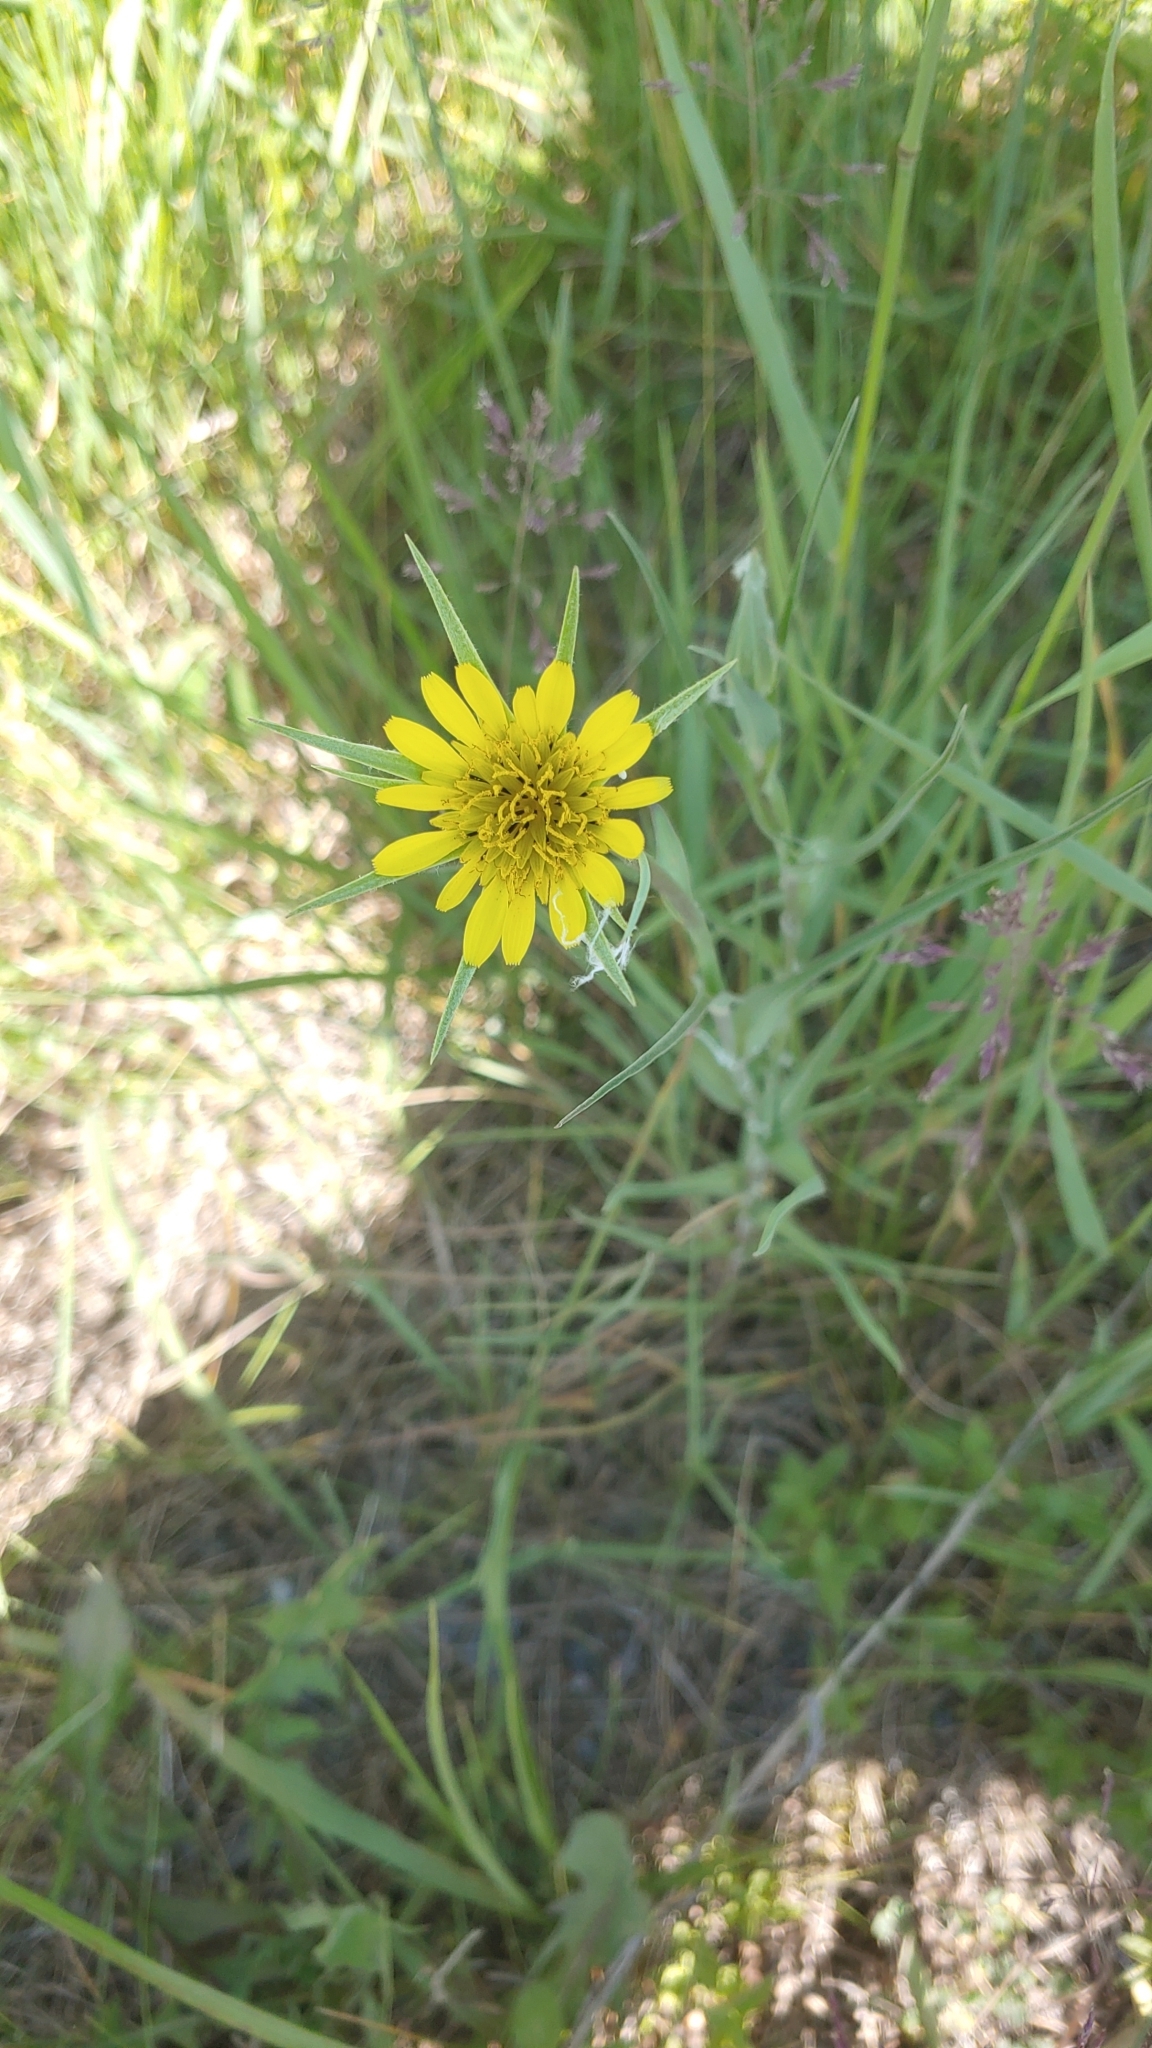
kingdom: Plantae
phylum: Tracheophyta
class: Magnoliopsida
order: Asterales
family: Asteraceae
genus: Tragopogon
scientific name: Tragopogon dubius
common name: Yellow salsify
